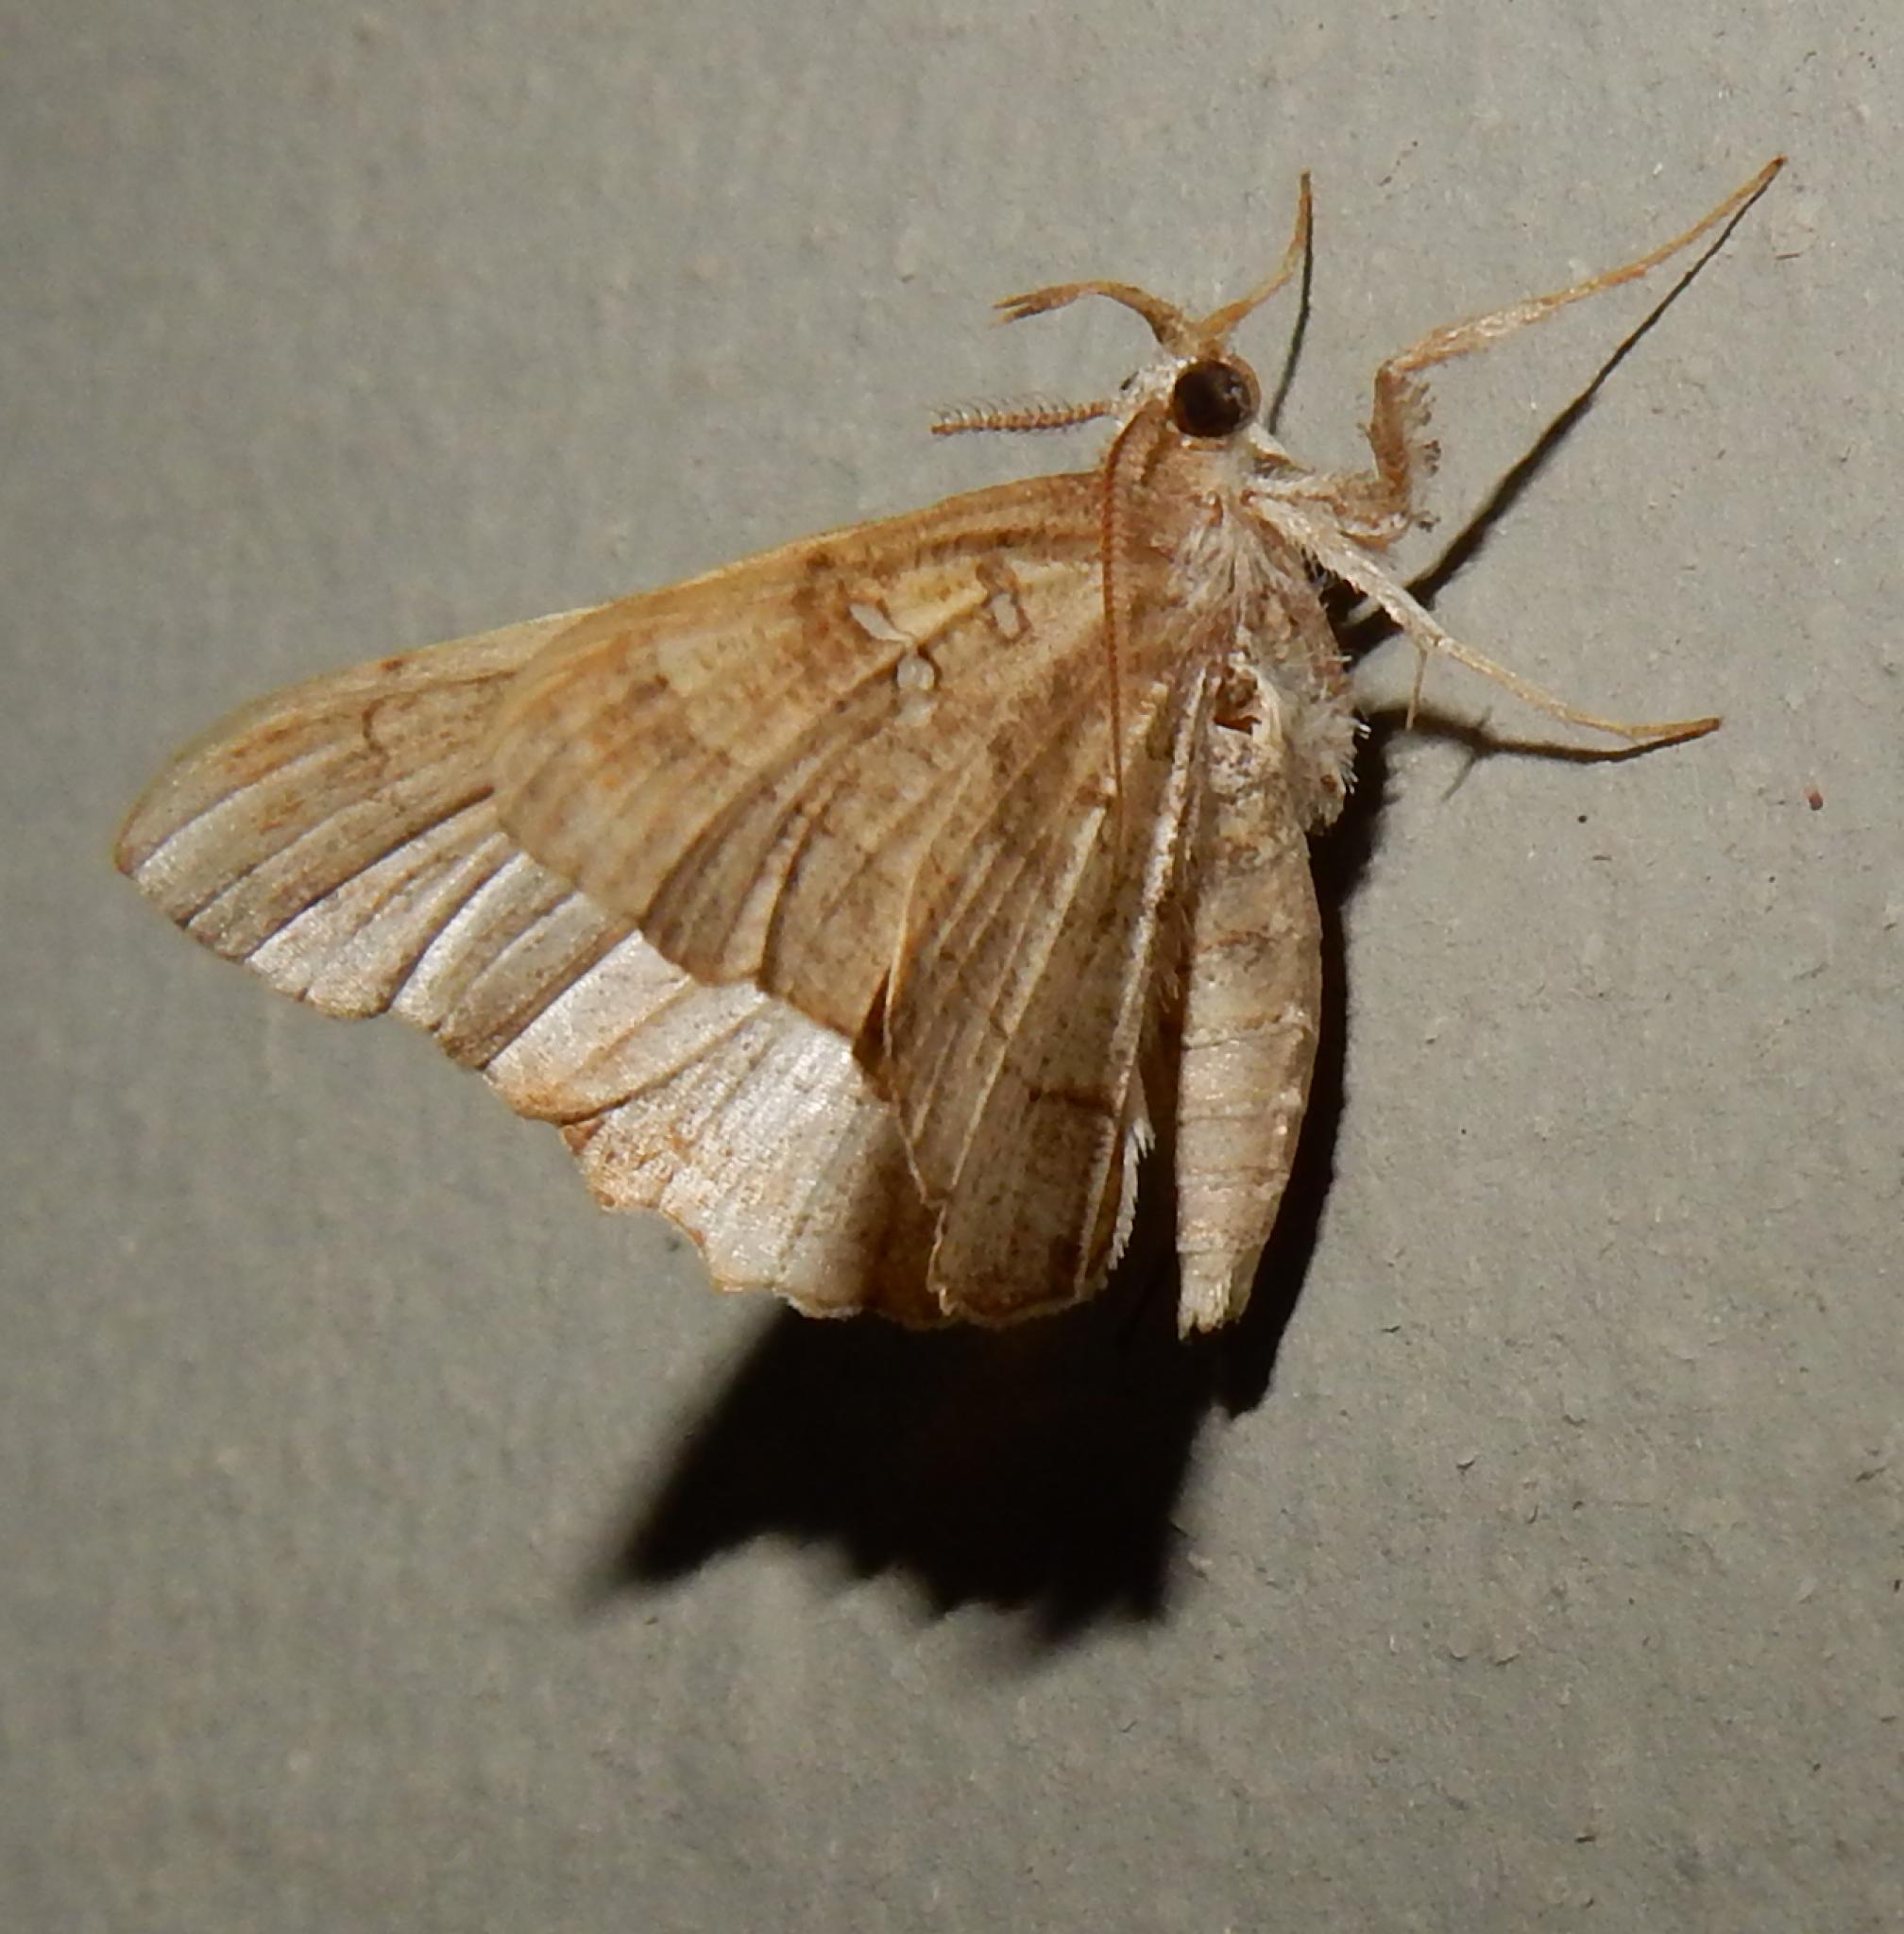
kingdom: Animalia
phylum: Arthropoda
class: Insecta
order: Lepidoptera
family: Erebidae
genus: Egnasia
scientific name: Egnasia vicaria
